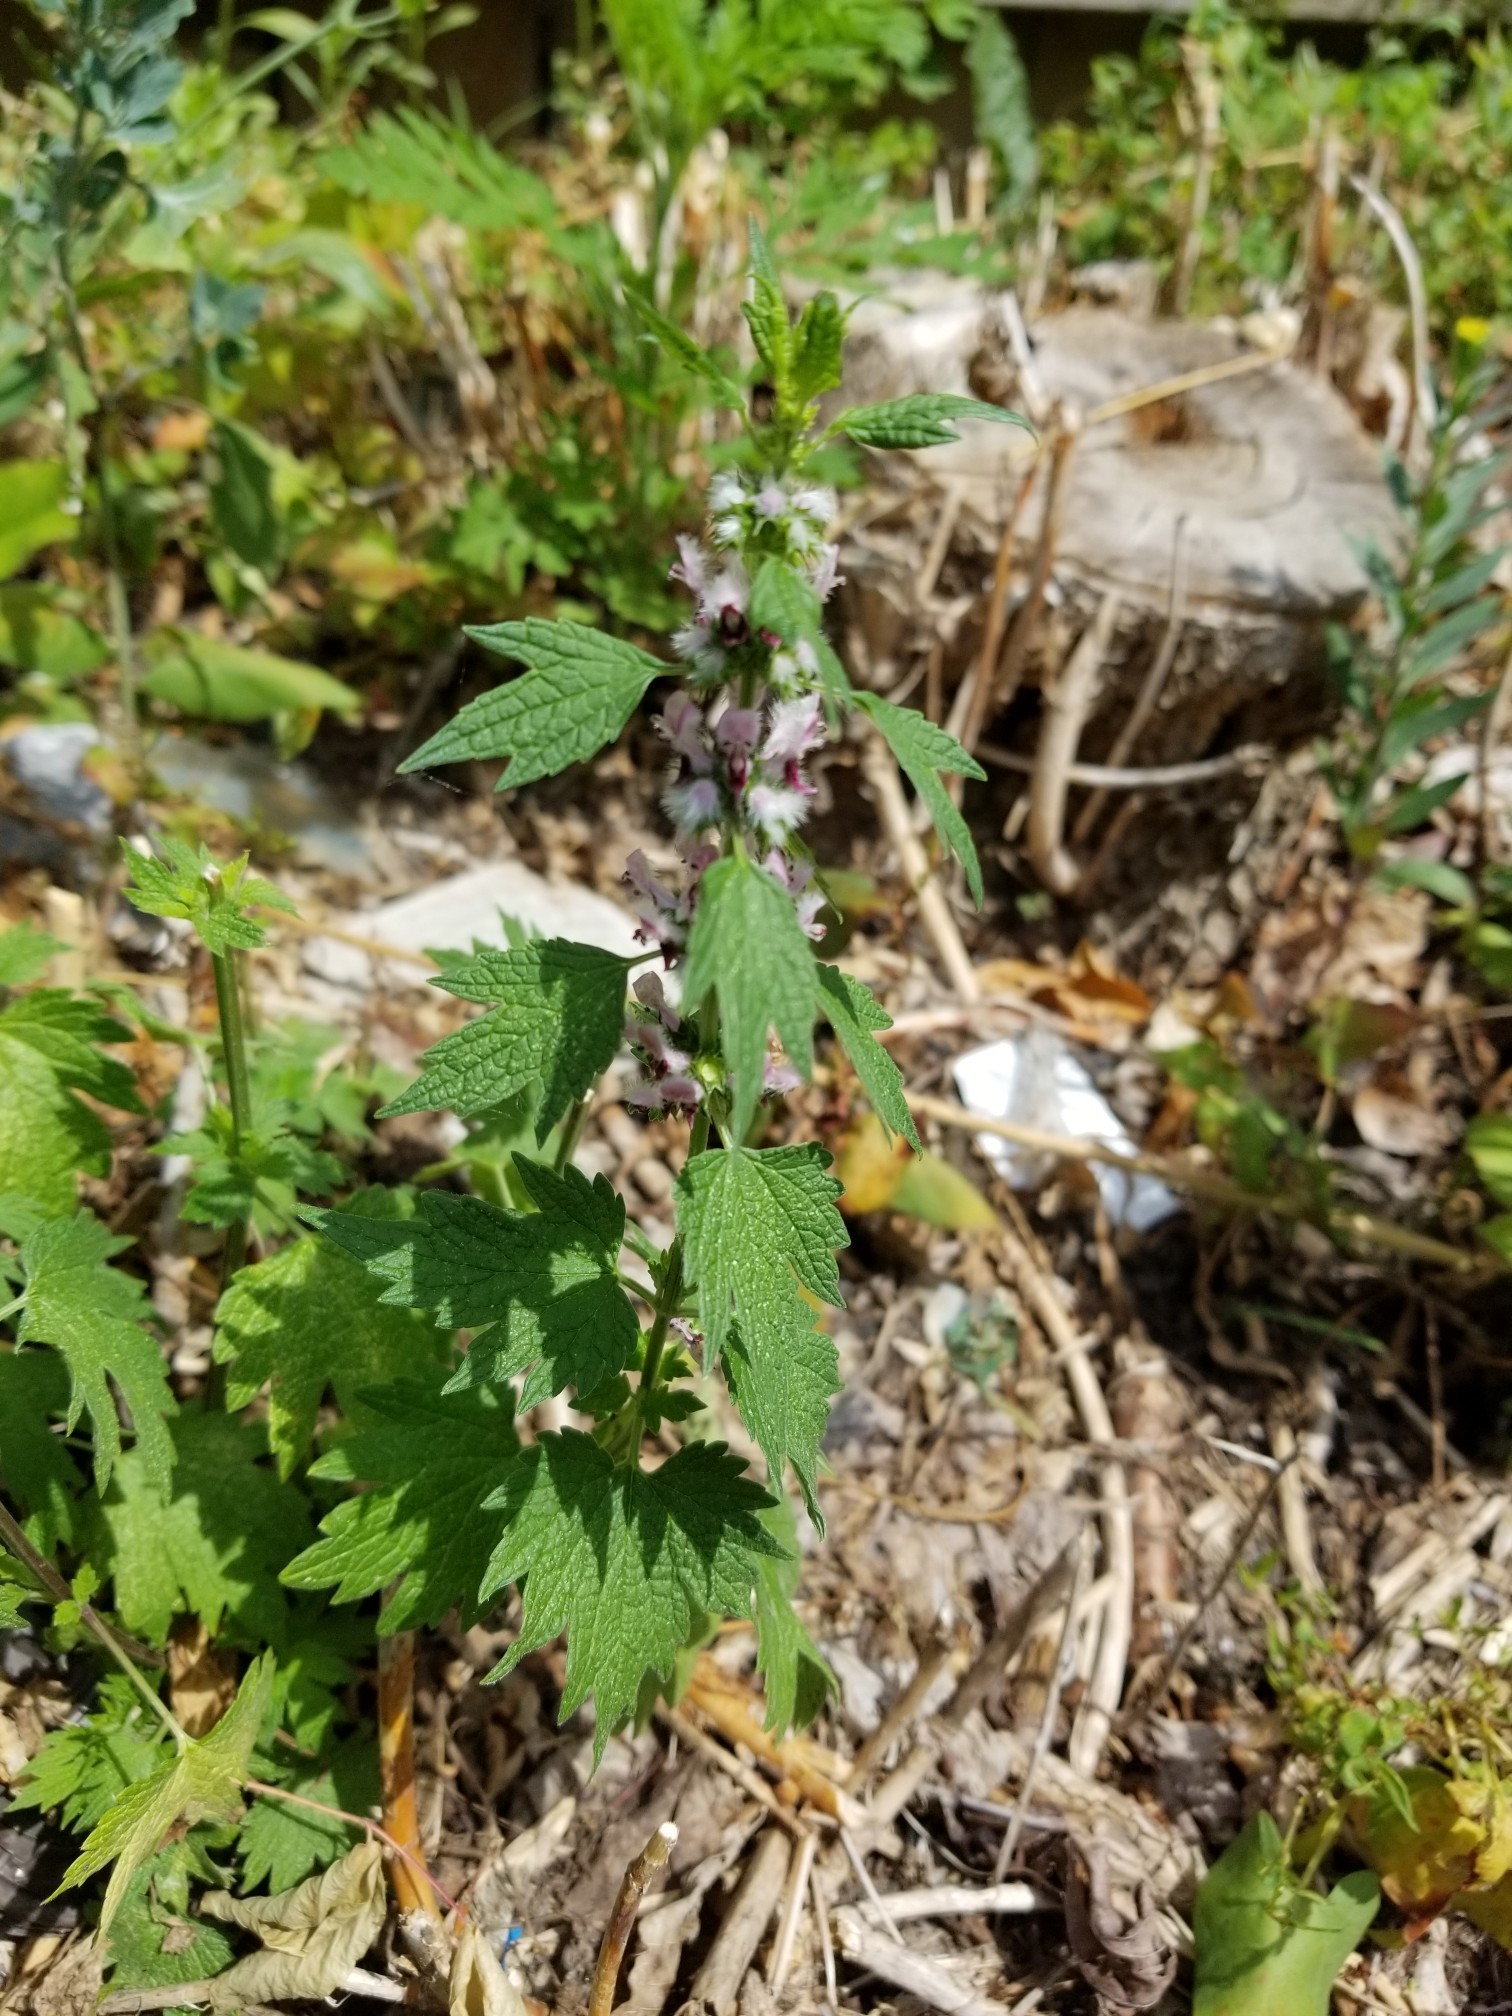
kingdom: Plantae
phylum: Tracheophyta
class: Magnoliopsida
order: Lamiales
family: Lamiaceae
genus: Leonurus
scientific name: Leonurus cardiaca
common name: Motherwort
